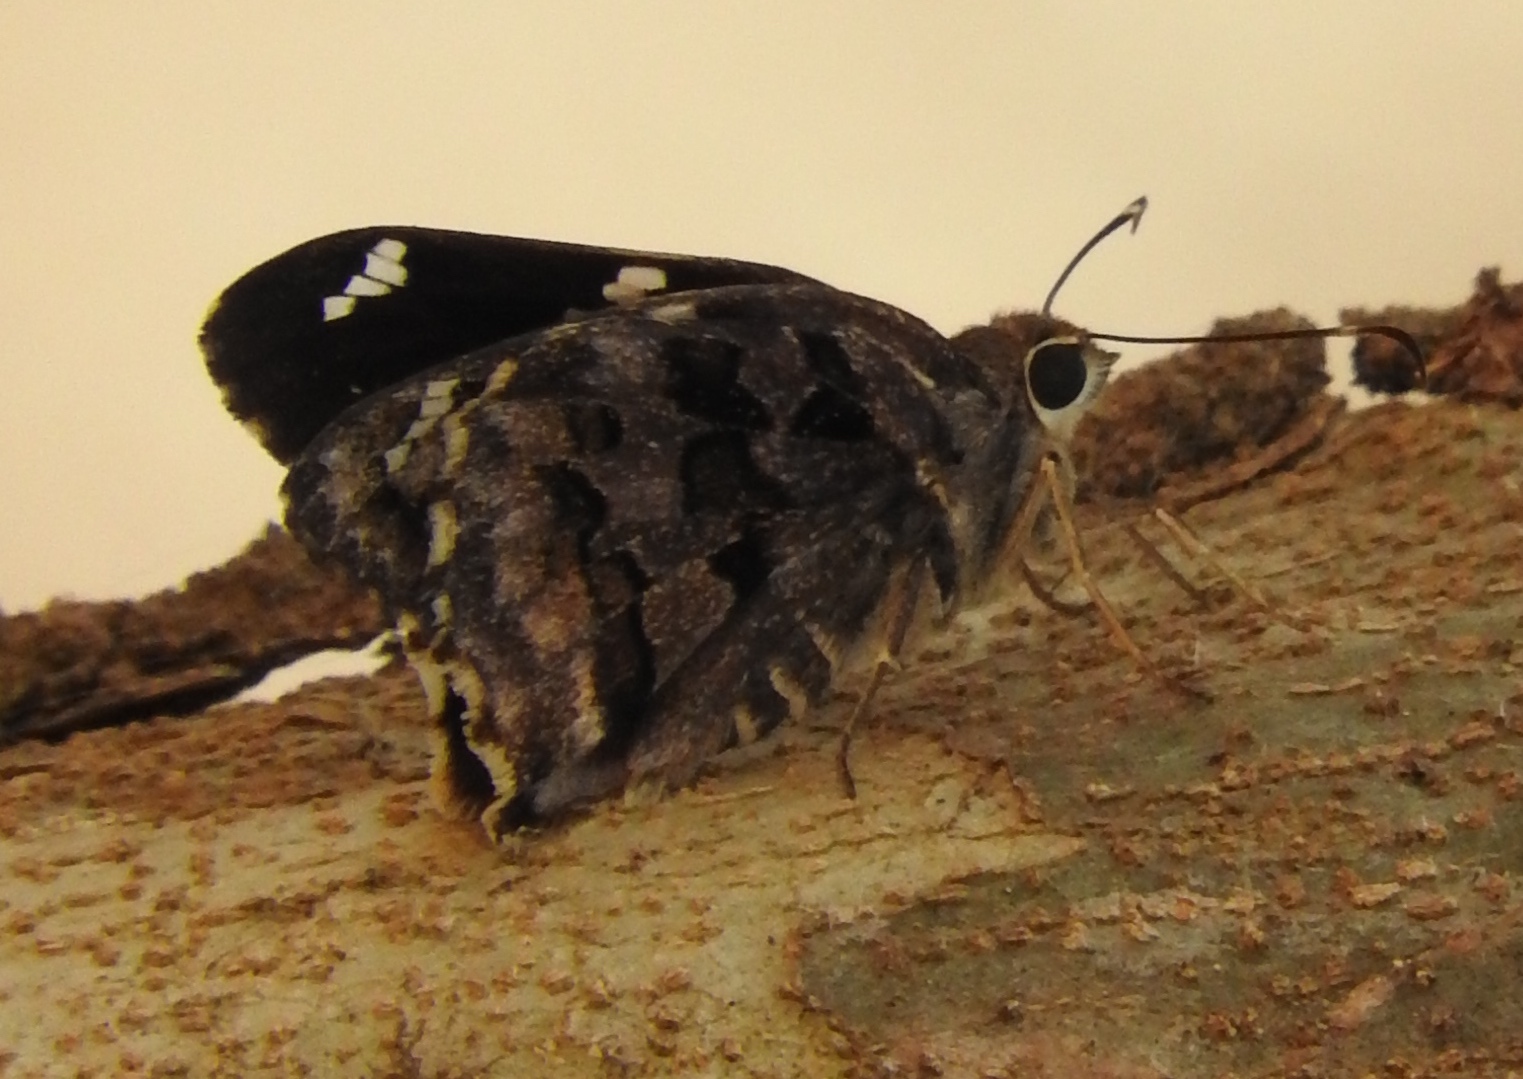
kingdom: Animalia
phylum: Arthropoda
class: Insecta
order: Lepidoptera
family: Hesperiidae
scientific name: Hesperiidae
